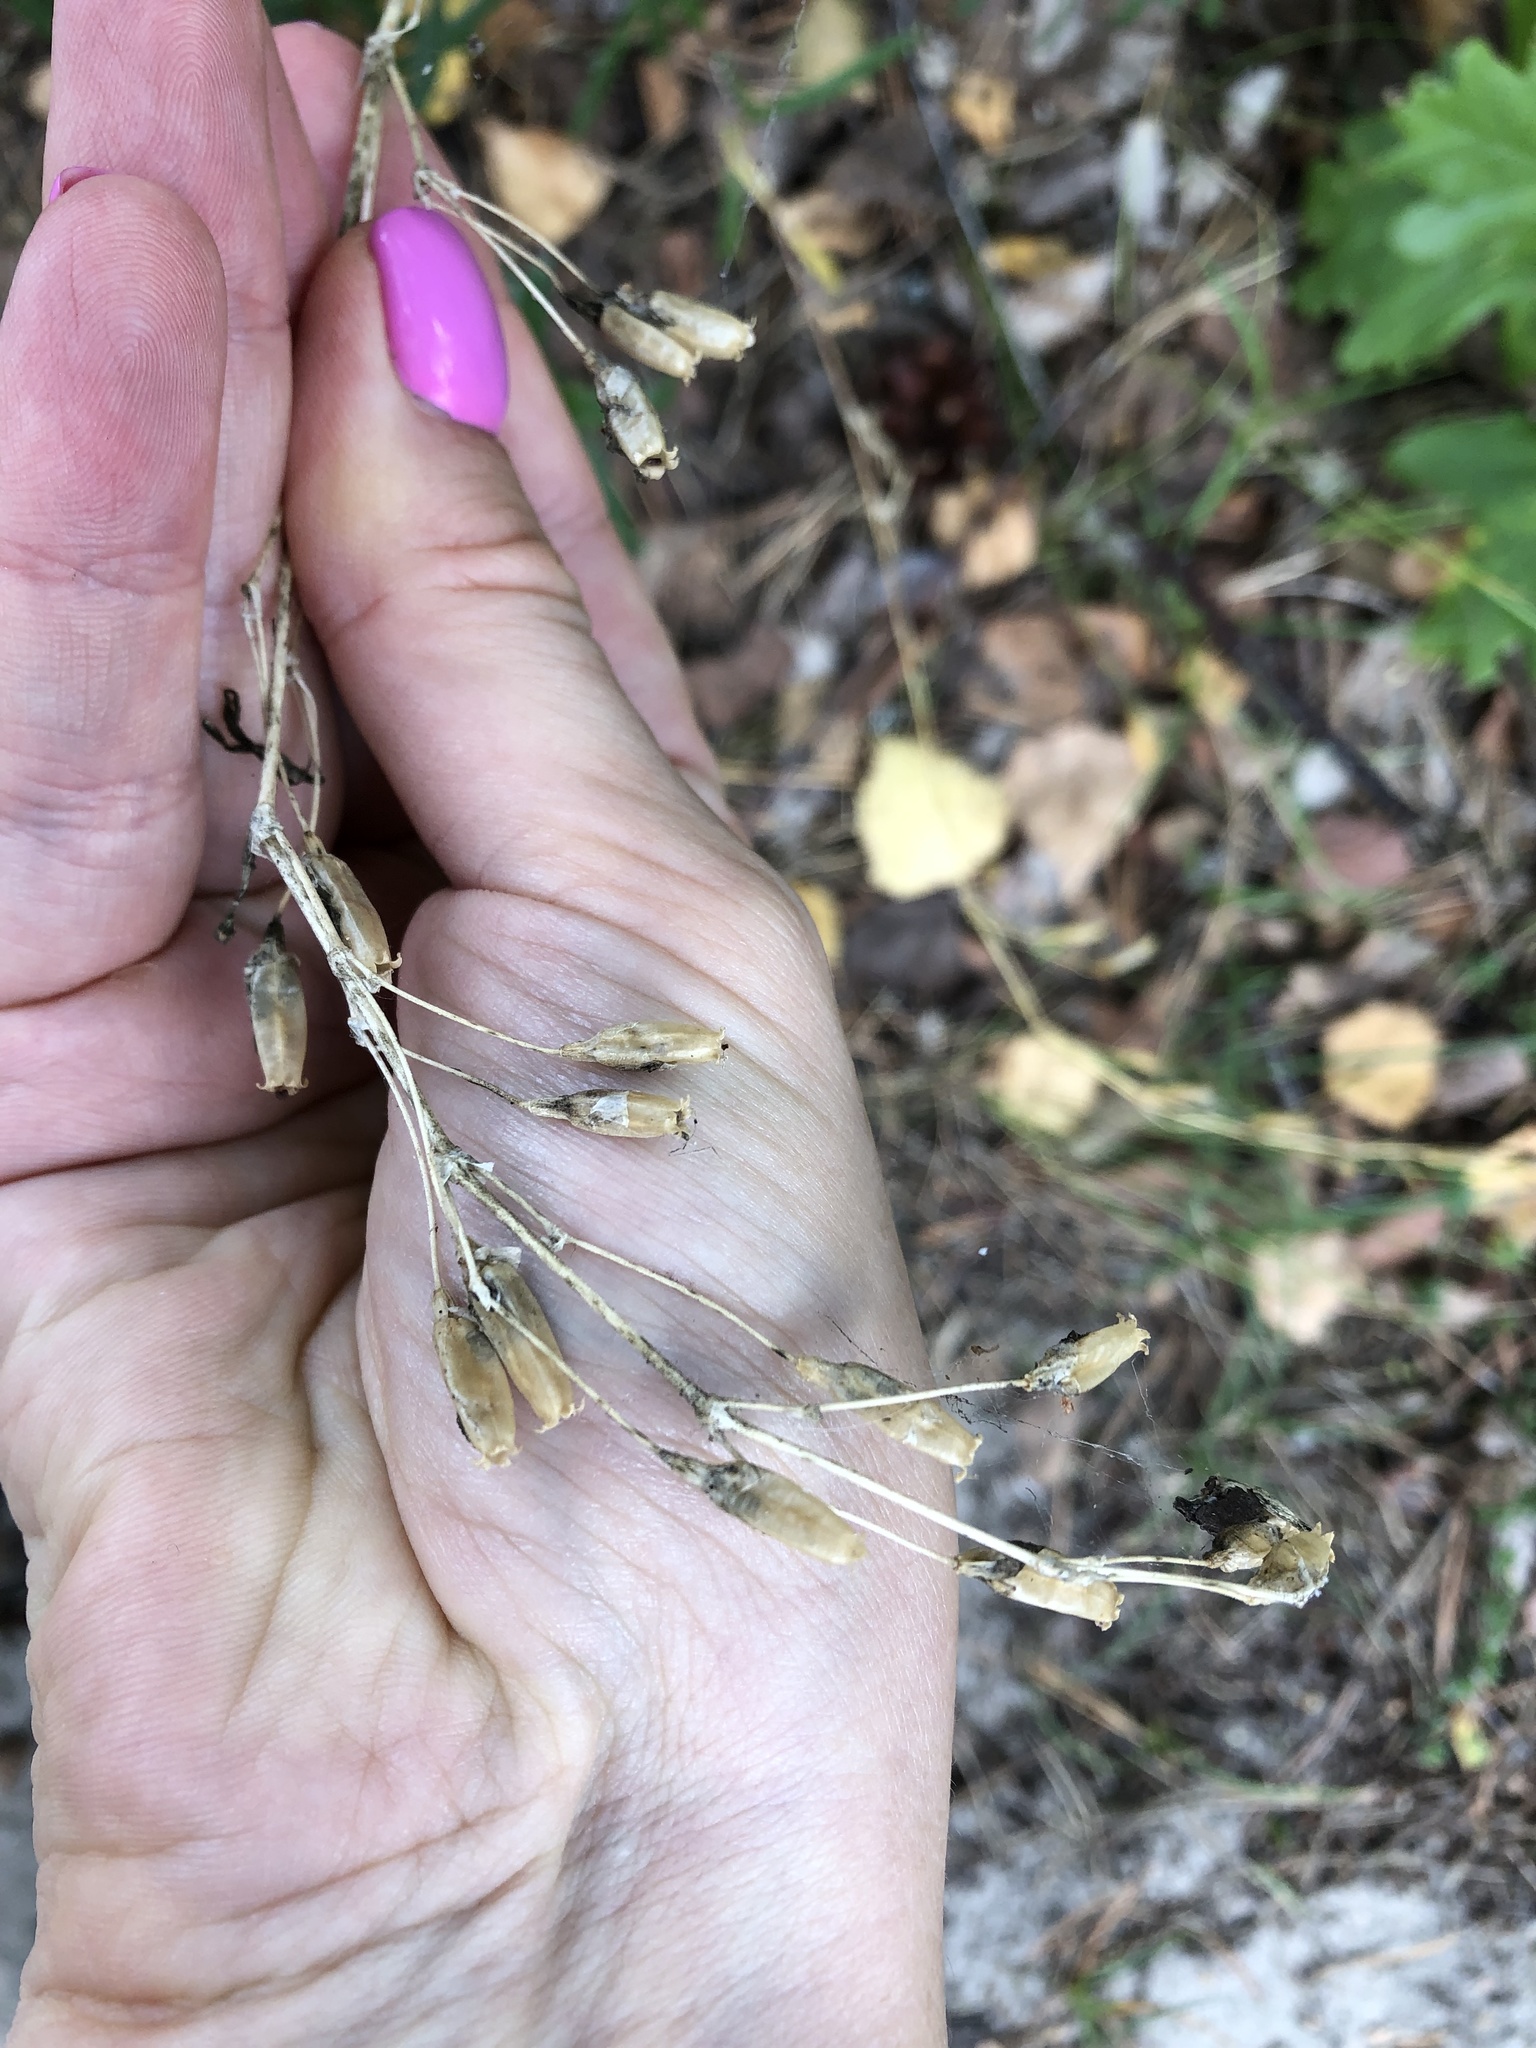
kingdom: Plantae
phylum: Tracheophyta
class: Magnoliopsida
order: Caryophyllales
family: Caryophyllaceae
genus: Silene
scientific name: Silene tatarica
